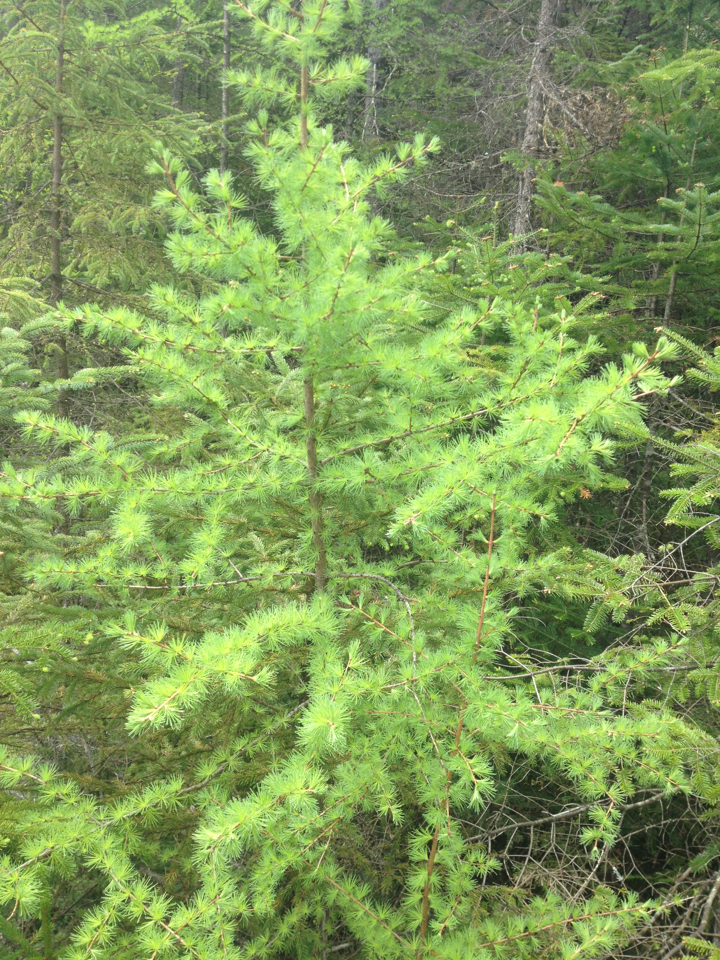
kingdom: Plantae
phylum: Tracheophyta
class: Pinopsida
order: Pinales
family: Pinaceae
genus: Larix
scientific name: Larix laricina
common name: American larch
